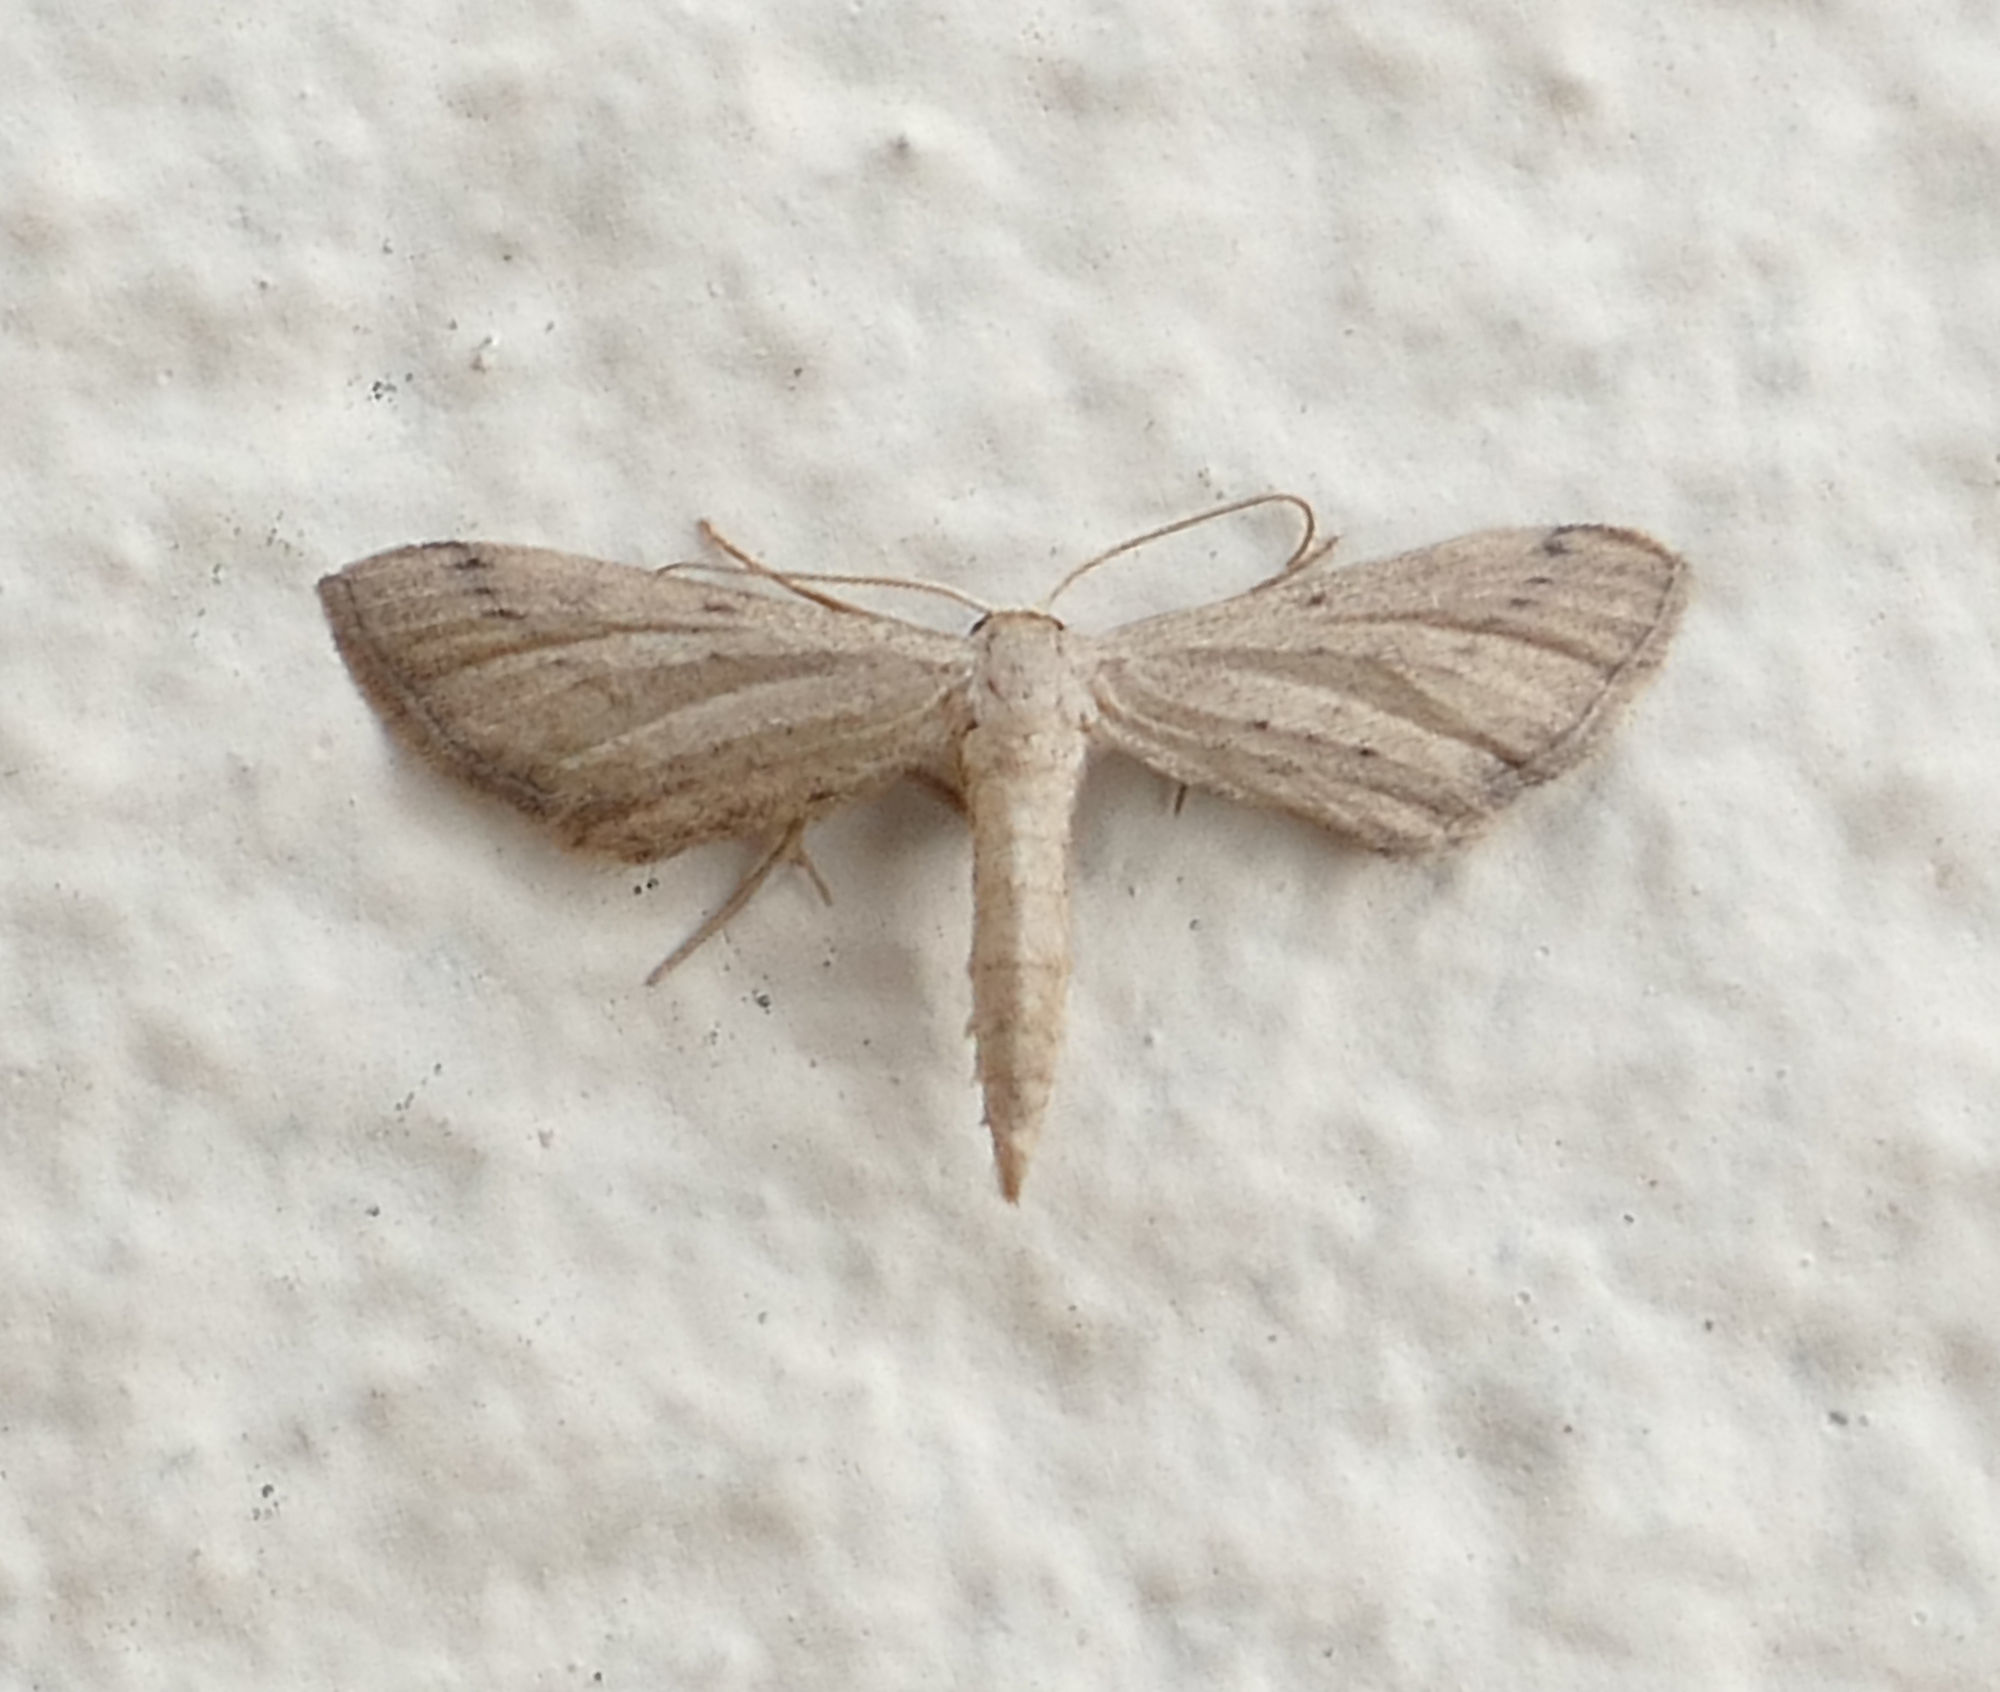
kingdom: Animalia
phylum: Arthropoda
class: Insecta
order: Lepidoptera
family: Geometridae
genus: Euacidalia
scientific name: Euacidalia sericearia
